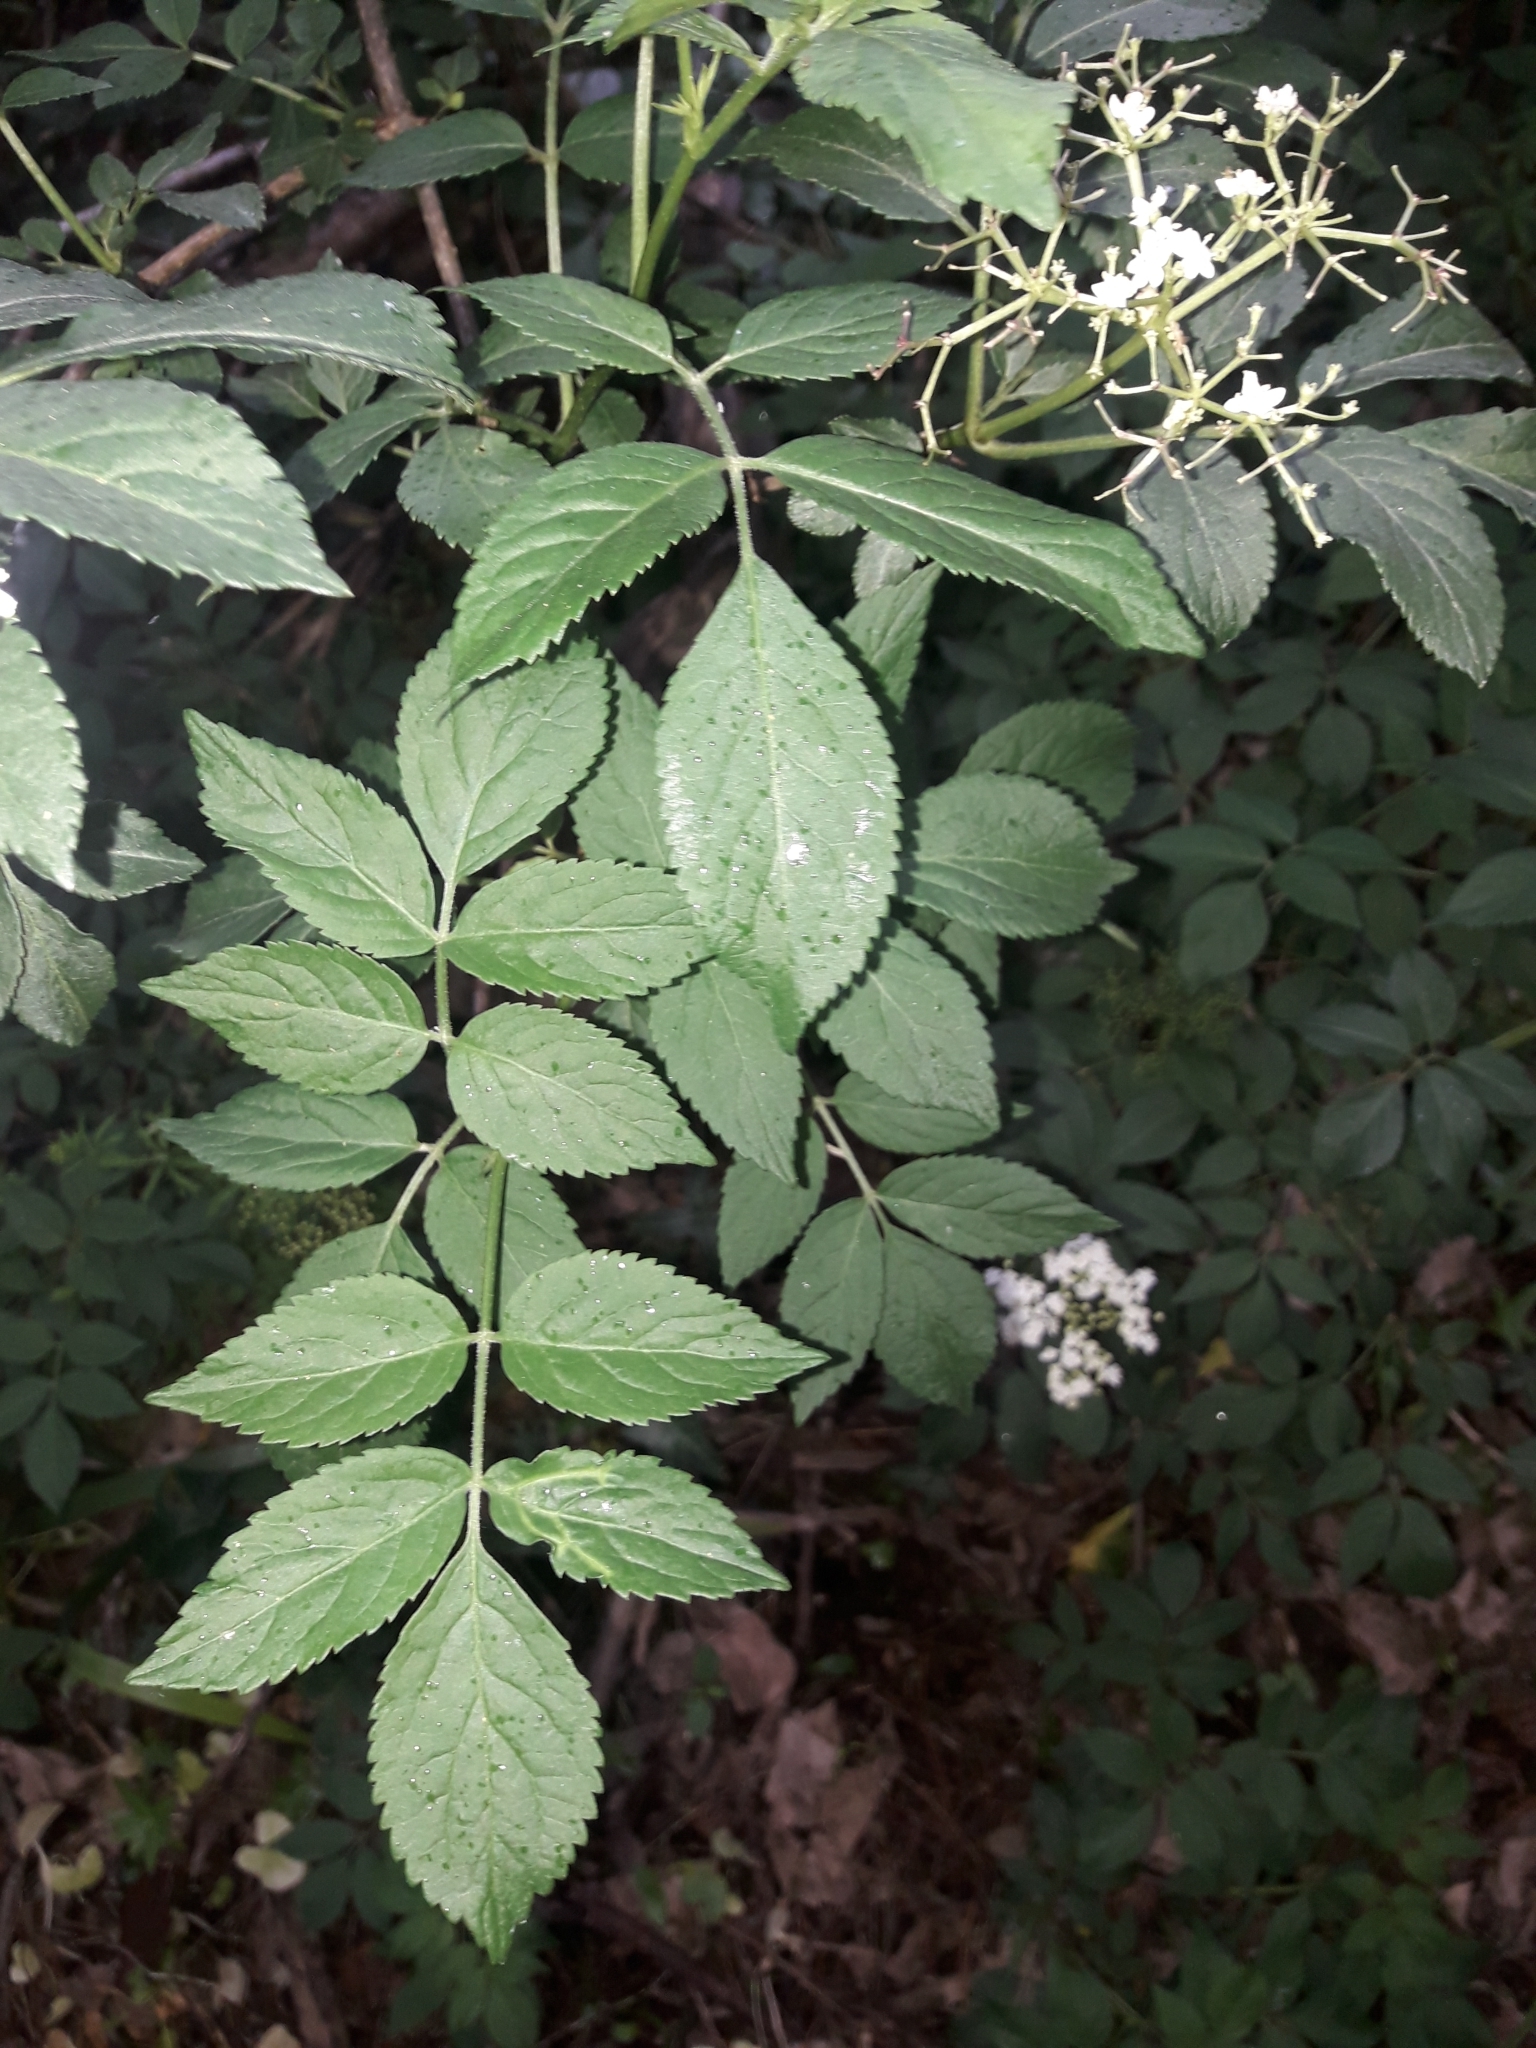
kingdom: Plantae
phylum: Tracheophyta
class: Magnoliopsida
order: Dipsacales
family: Viburnaceae
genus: Sambucus
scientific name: Sambucus nigra
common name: Elder
